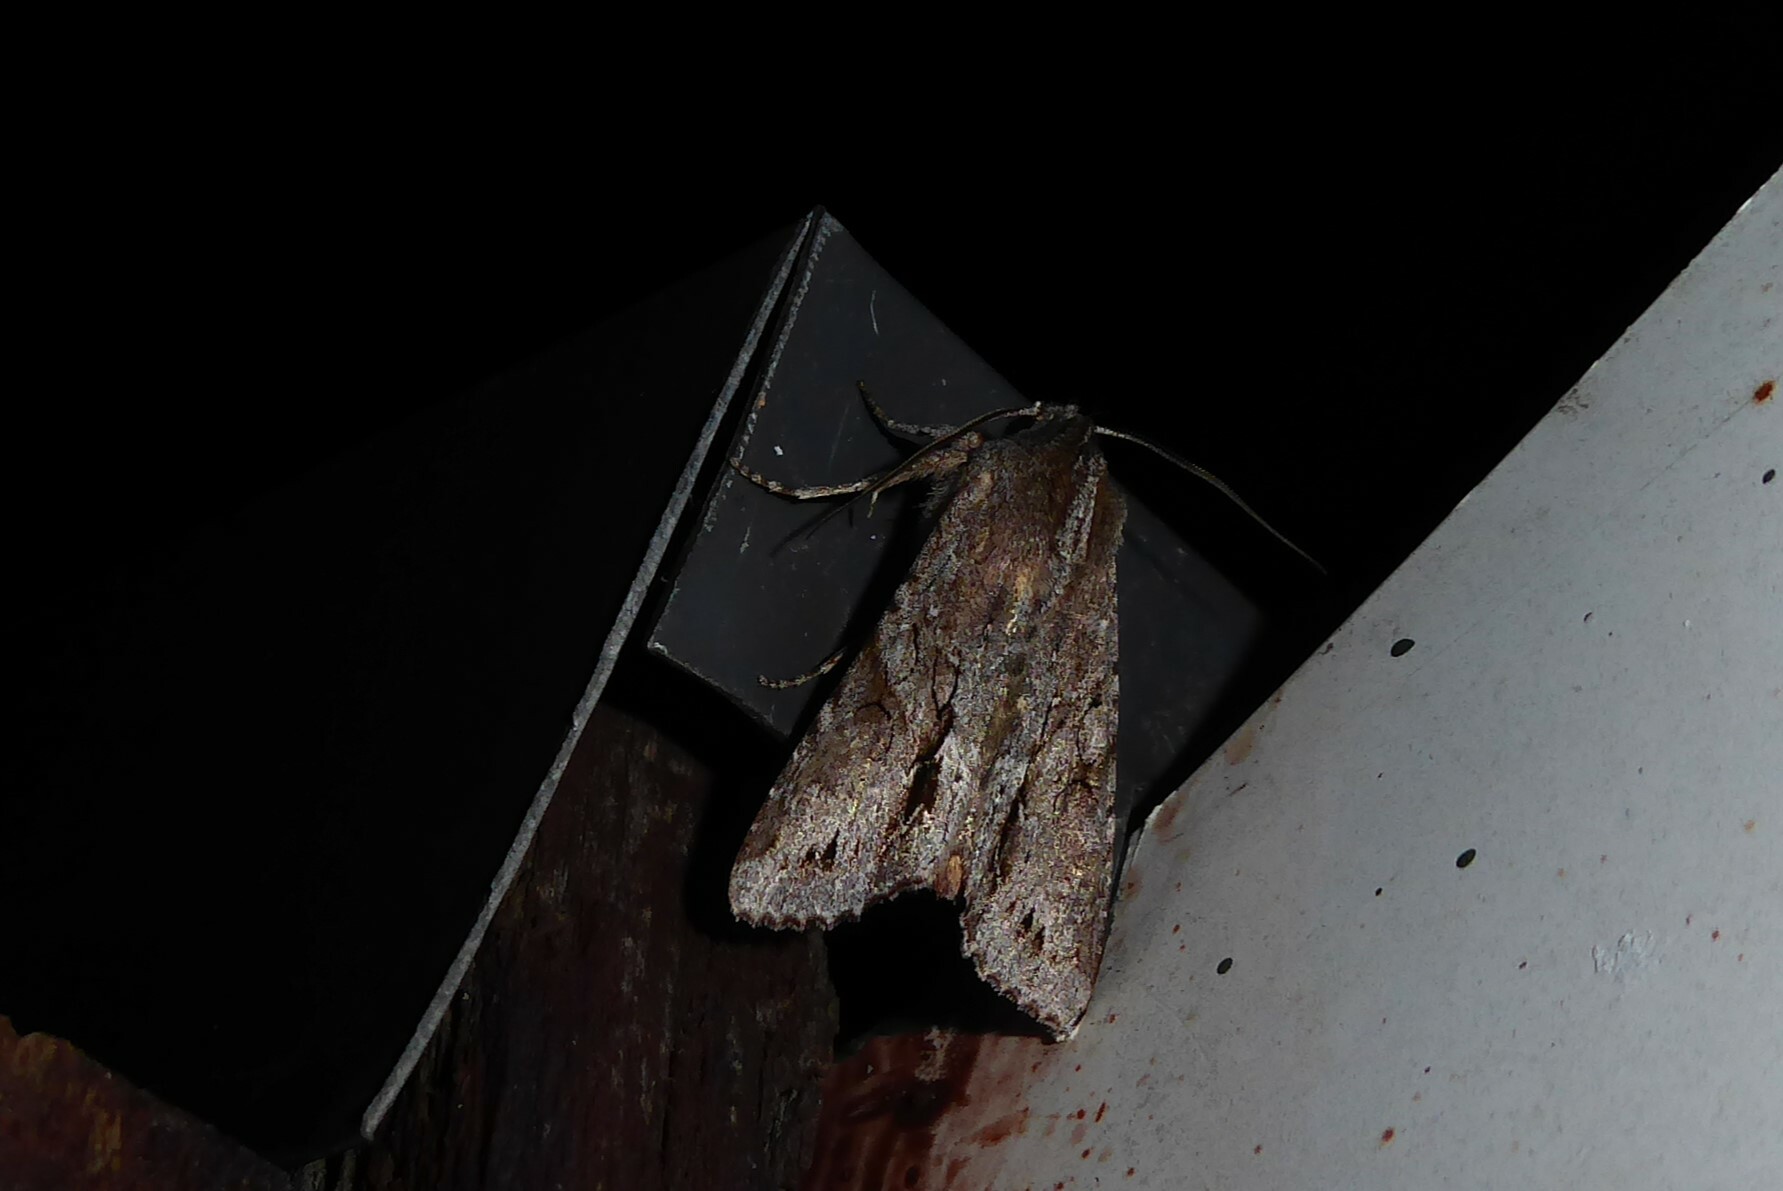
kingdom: Animalia
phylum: Arthropoda
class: Insecta
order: Lepidoptera
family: Noctuidae
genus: Ichneutica
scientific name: Ichneutica
